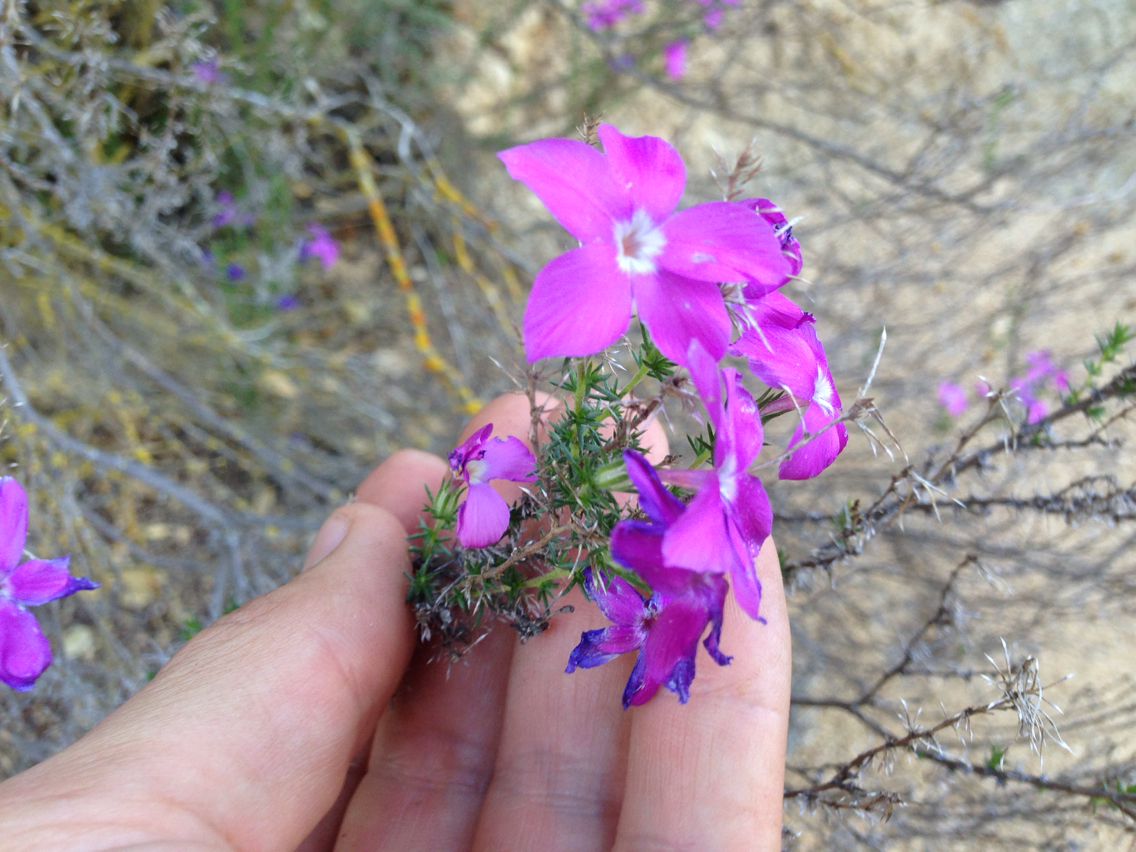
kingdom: Plantae
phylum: Tracheophyta
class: Magnoliopsida
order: Ericales
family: Polemoniaceae
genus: Linanthus
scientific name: Linanthus californicus
